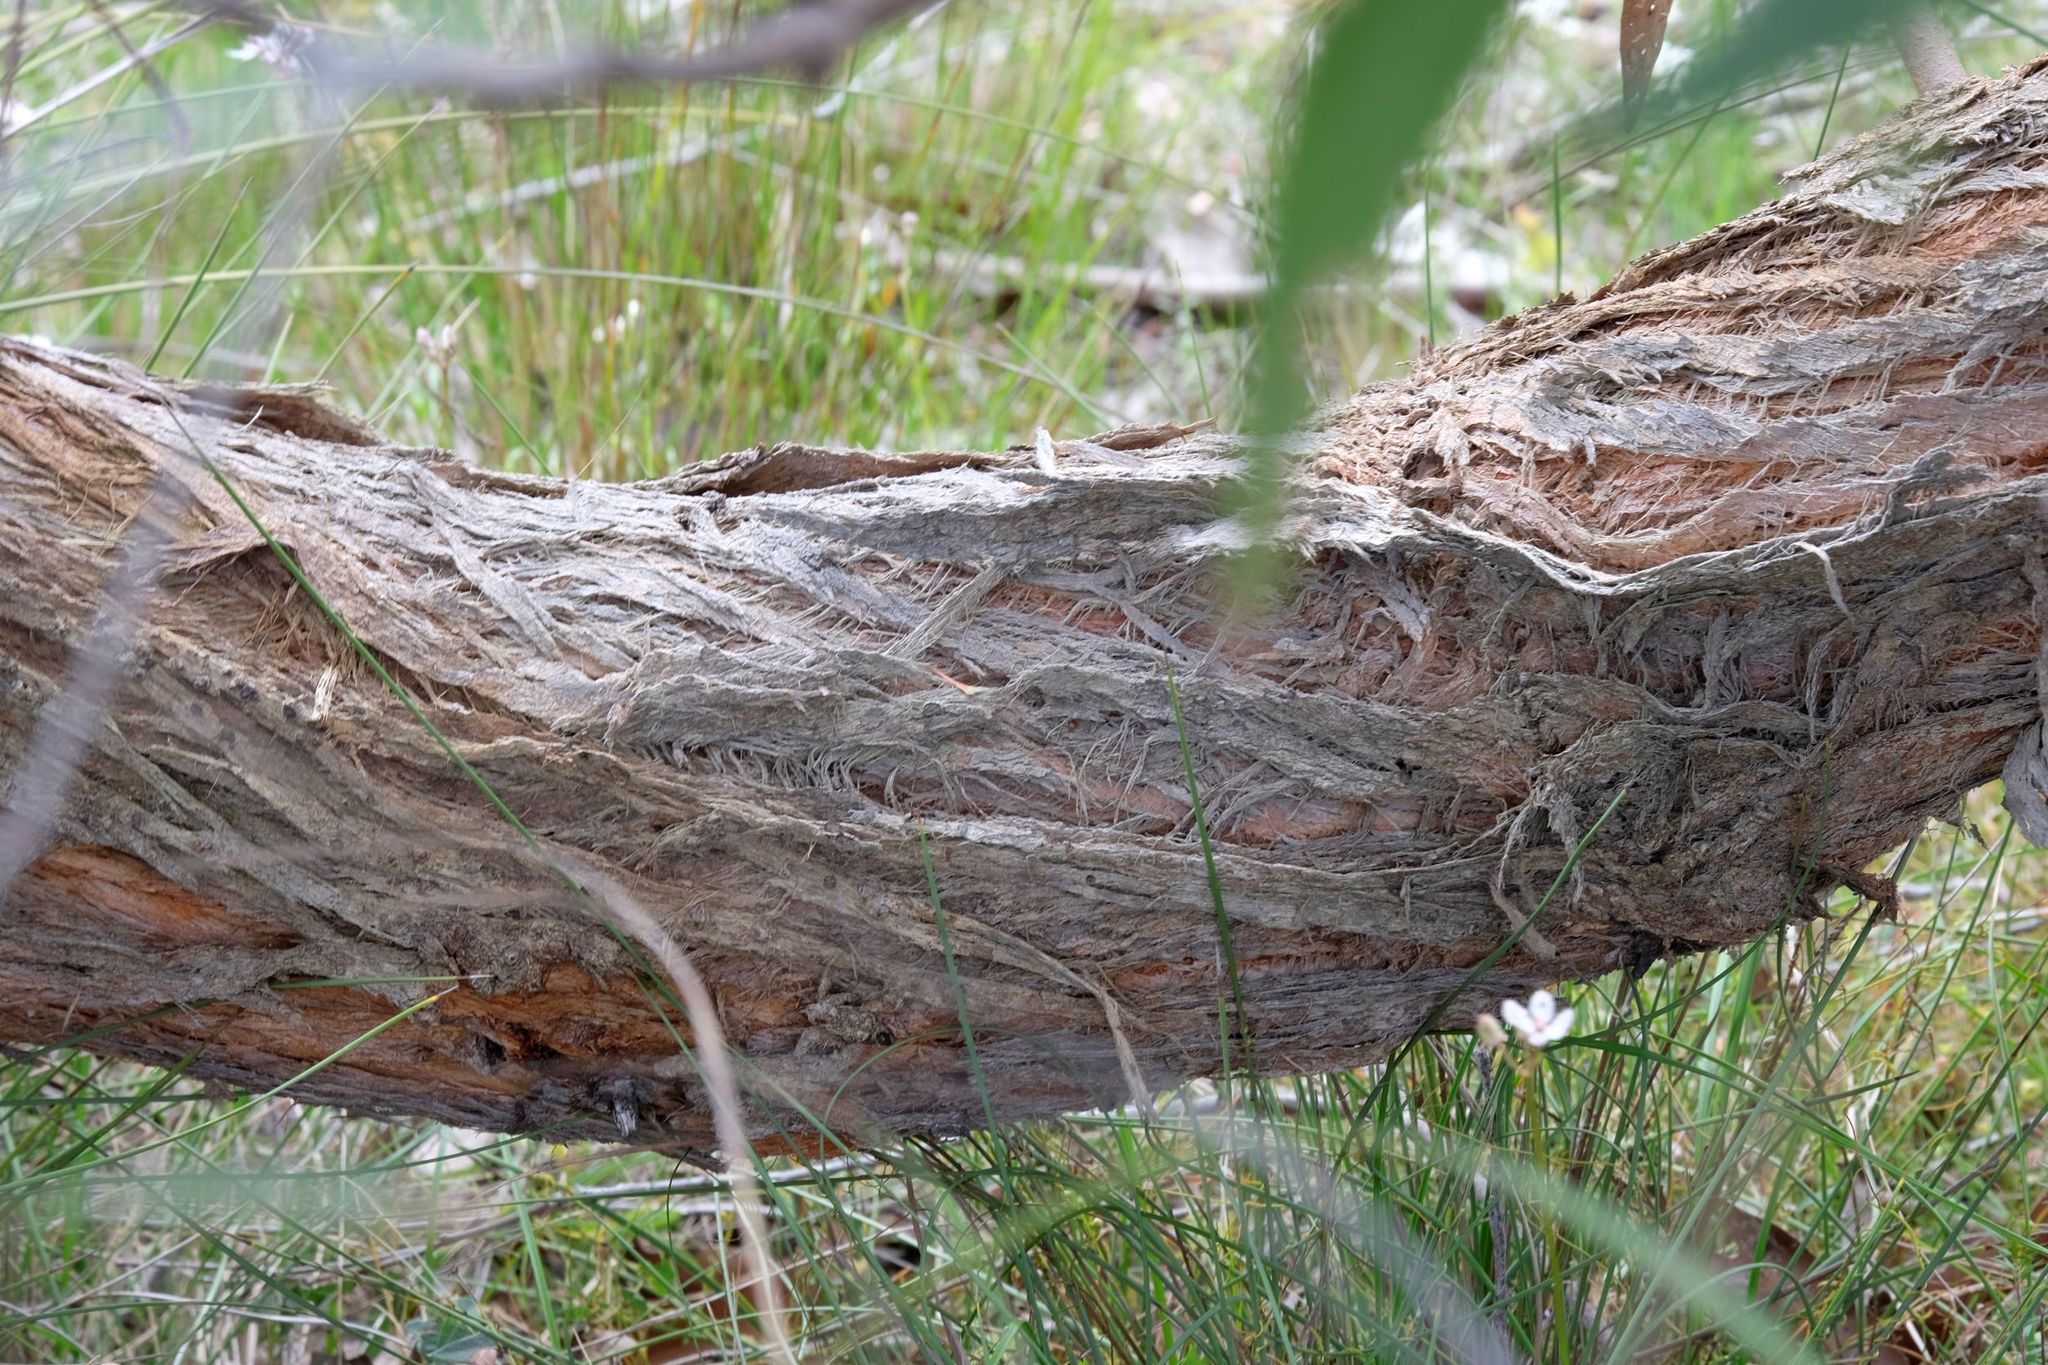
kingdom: Plantae
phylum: Tracheophyta
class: Magnoliopsida
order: Myrtales
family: Myrtaceae
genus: Eucalyptus
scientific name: Eucalyptus obliqua
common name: Messmate stringybark
